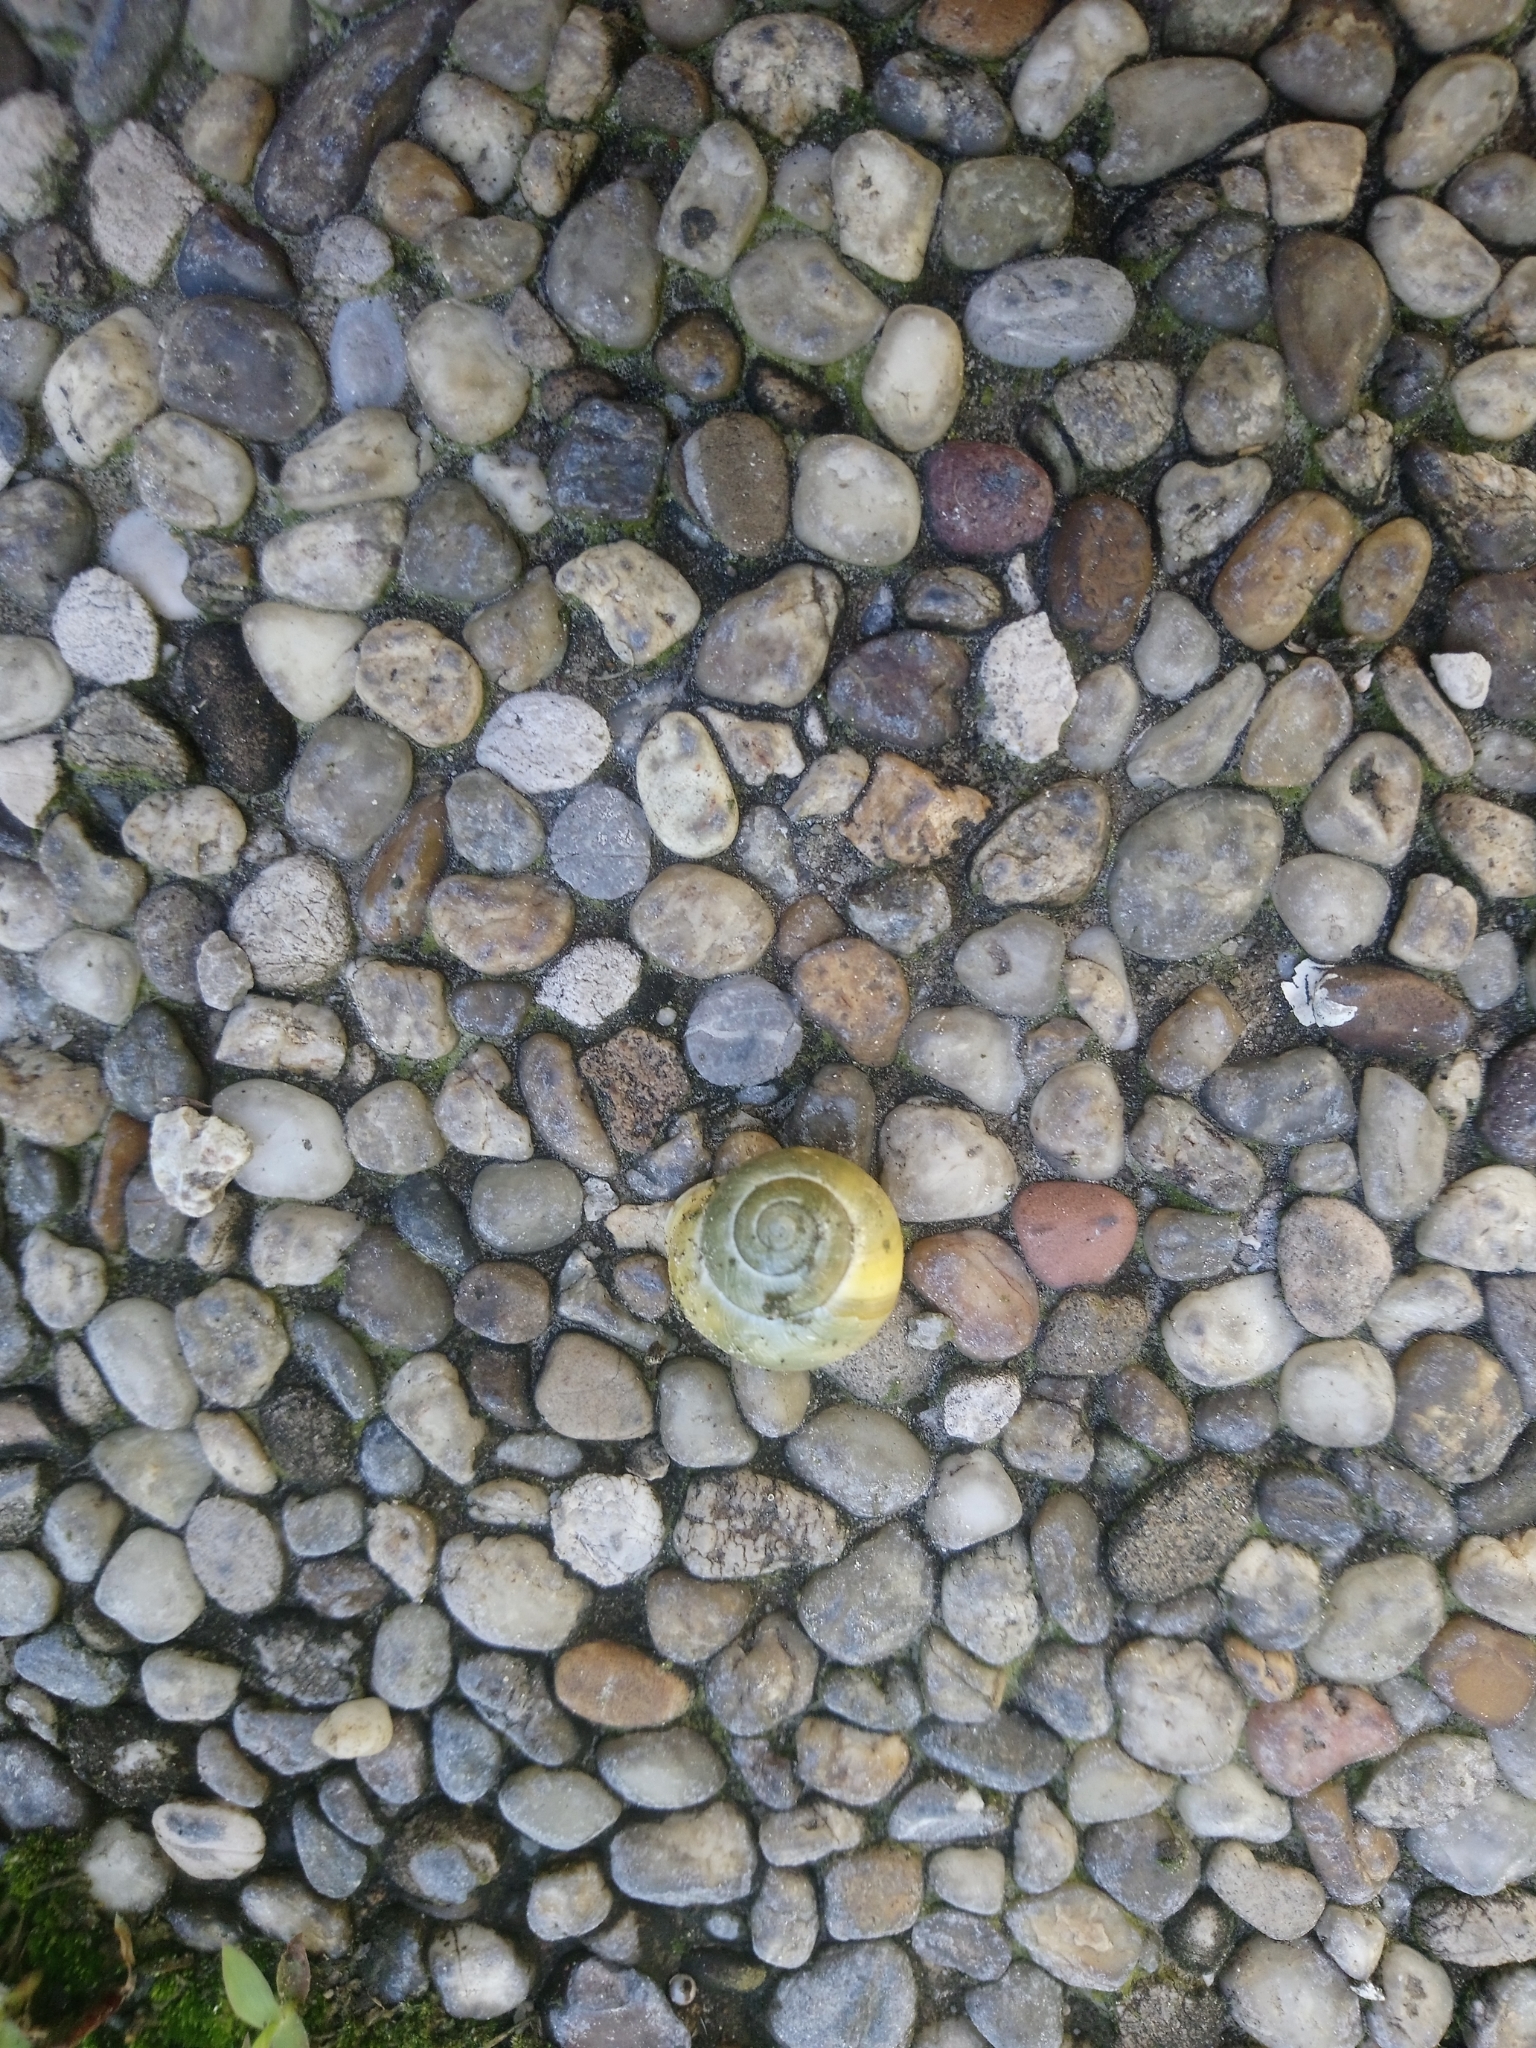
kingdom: Animalia
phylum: Mollusca
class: Gastropoda
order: Stylommatophora
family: Helicidae
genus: Cepaea
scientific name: Cepaea hortensis
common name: White-lip gardensnail
